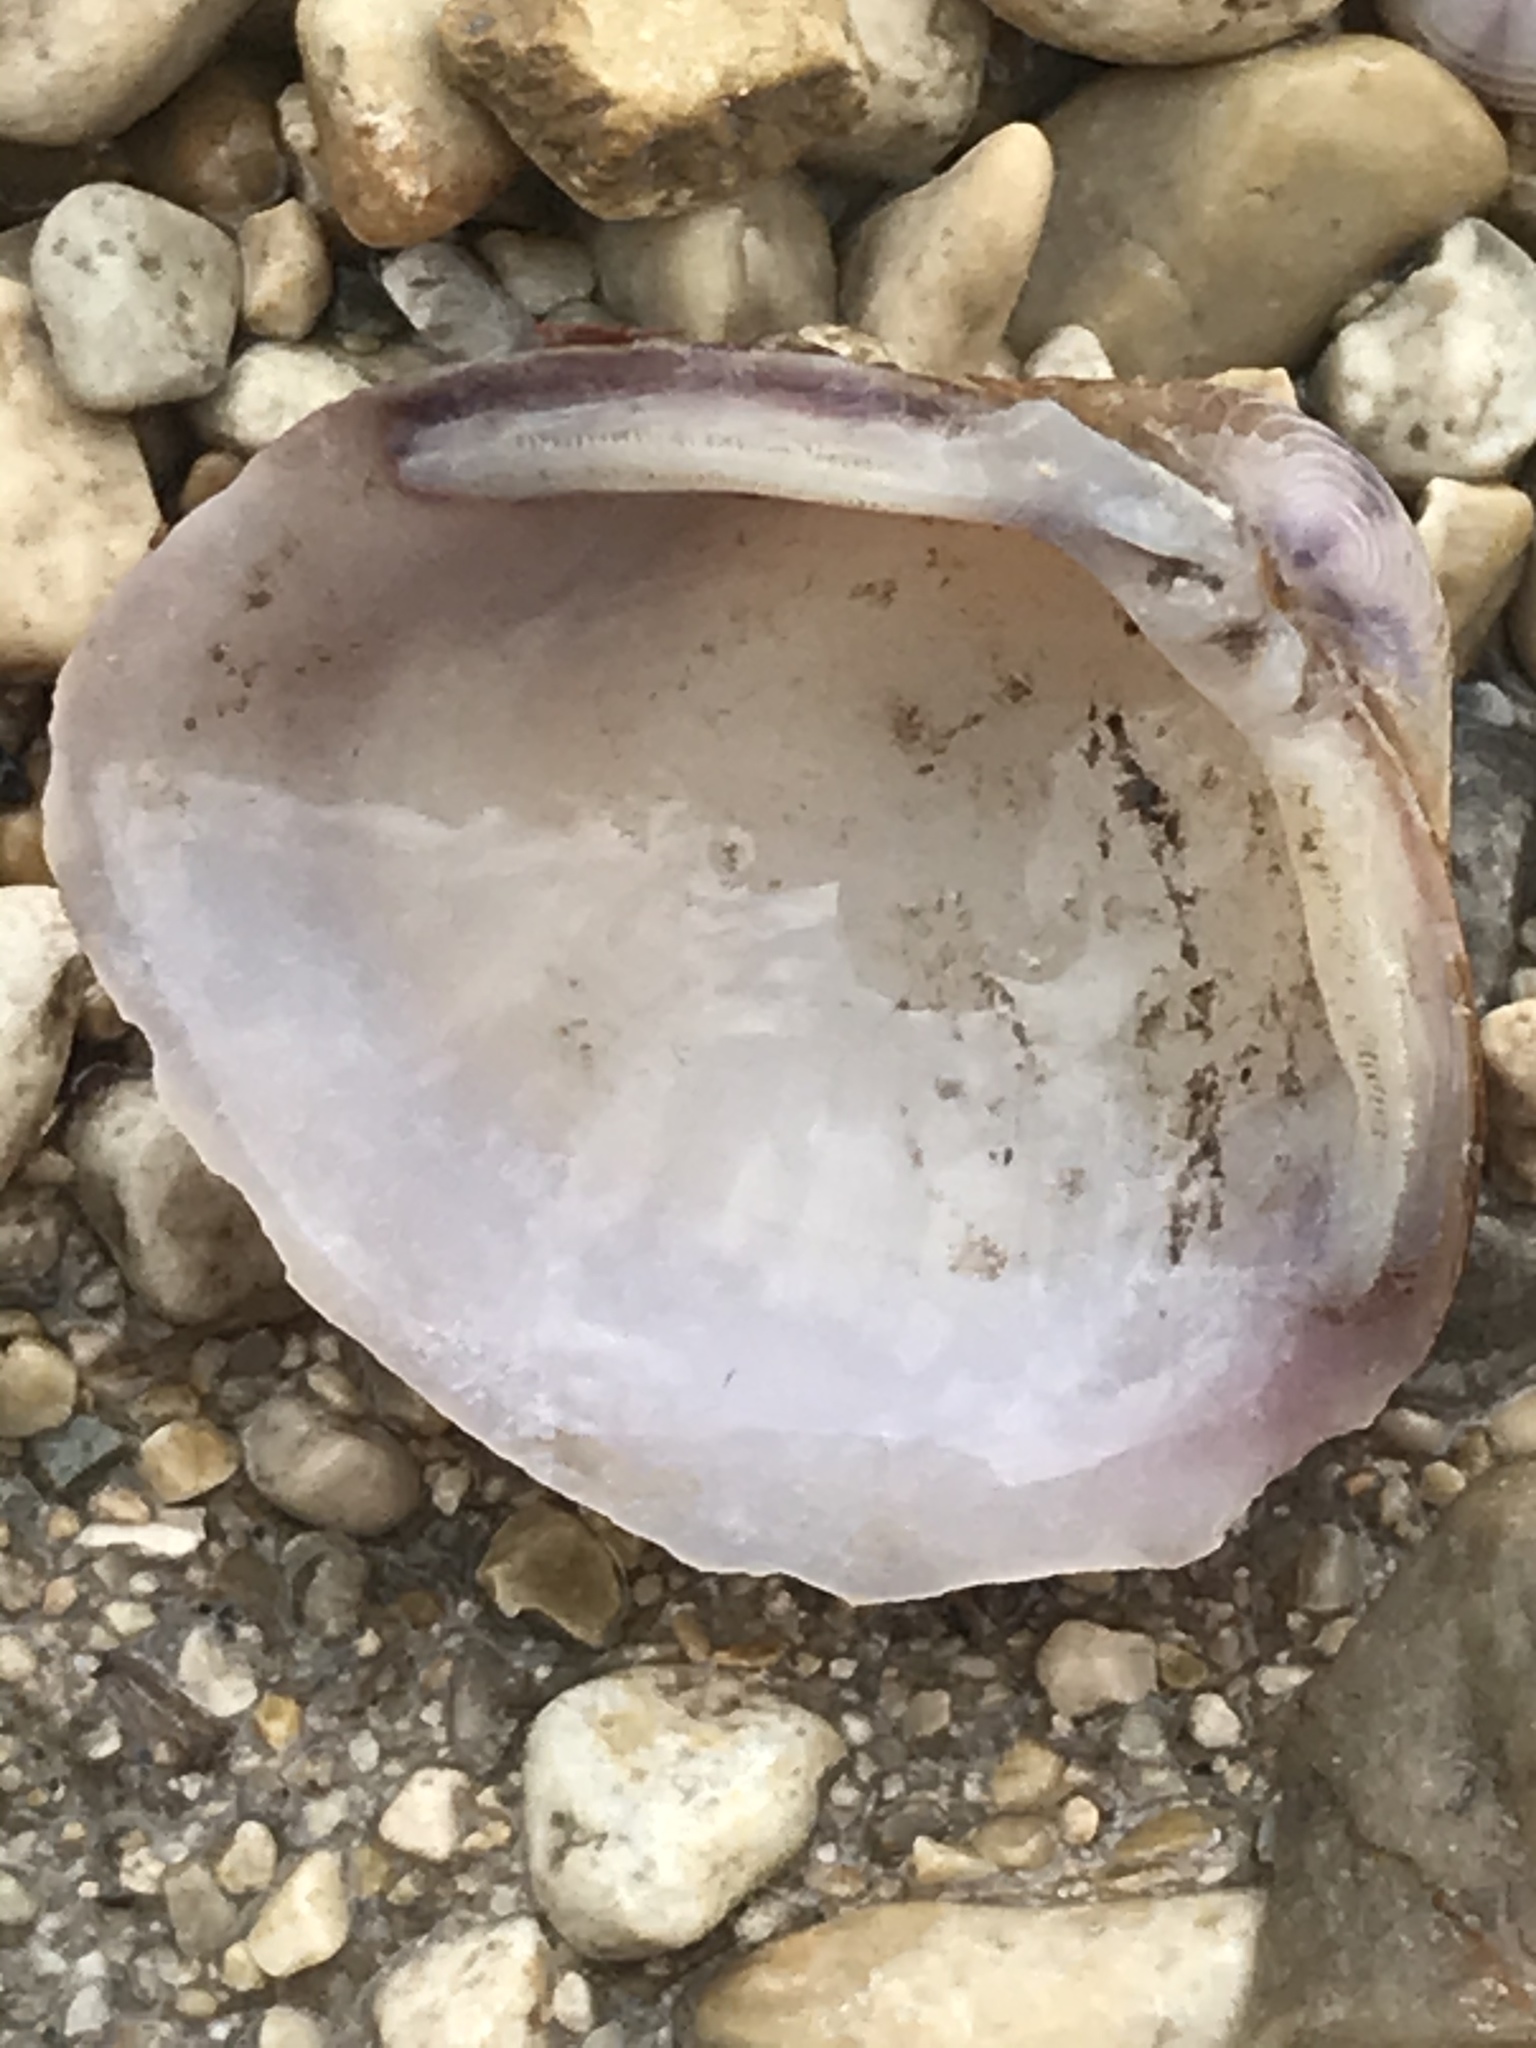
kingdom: Animalia
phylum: Mollusca
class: Bivalvia
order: Venerida
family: Cyrenidae
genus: Corbicula
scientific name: Corbicula fluminea
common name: Asian clam
